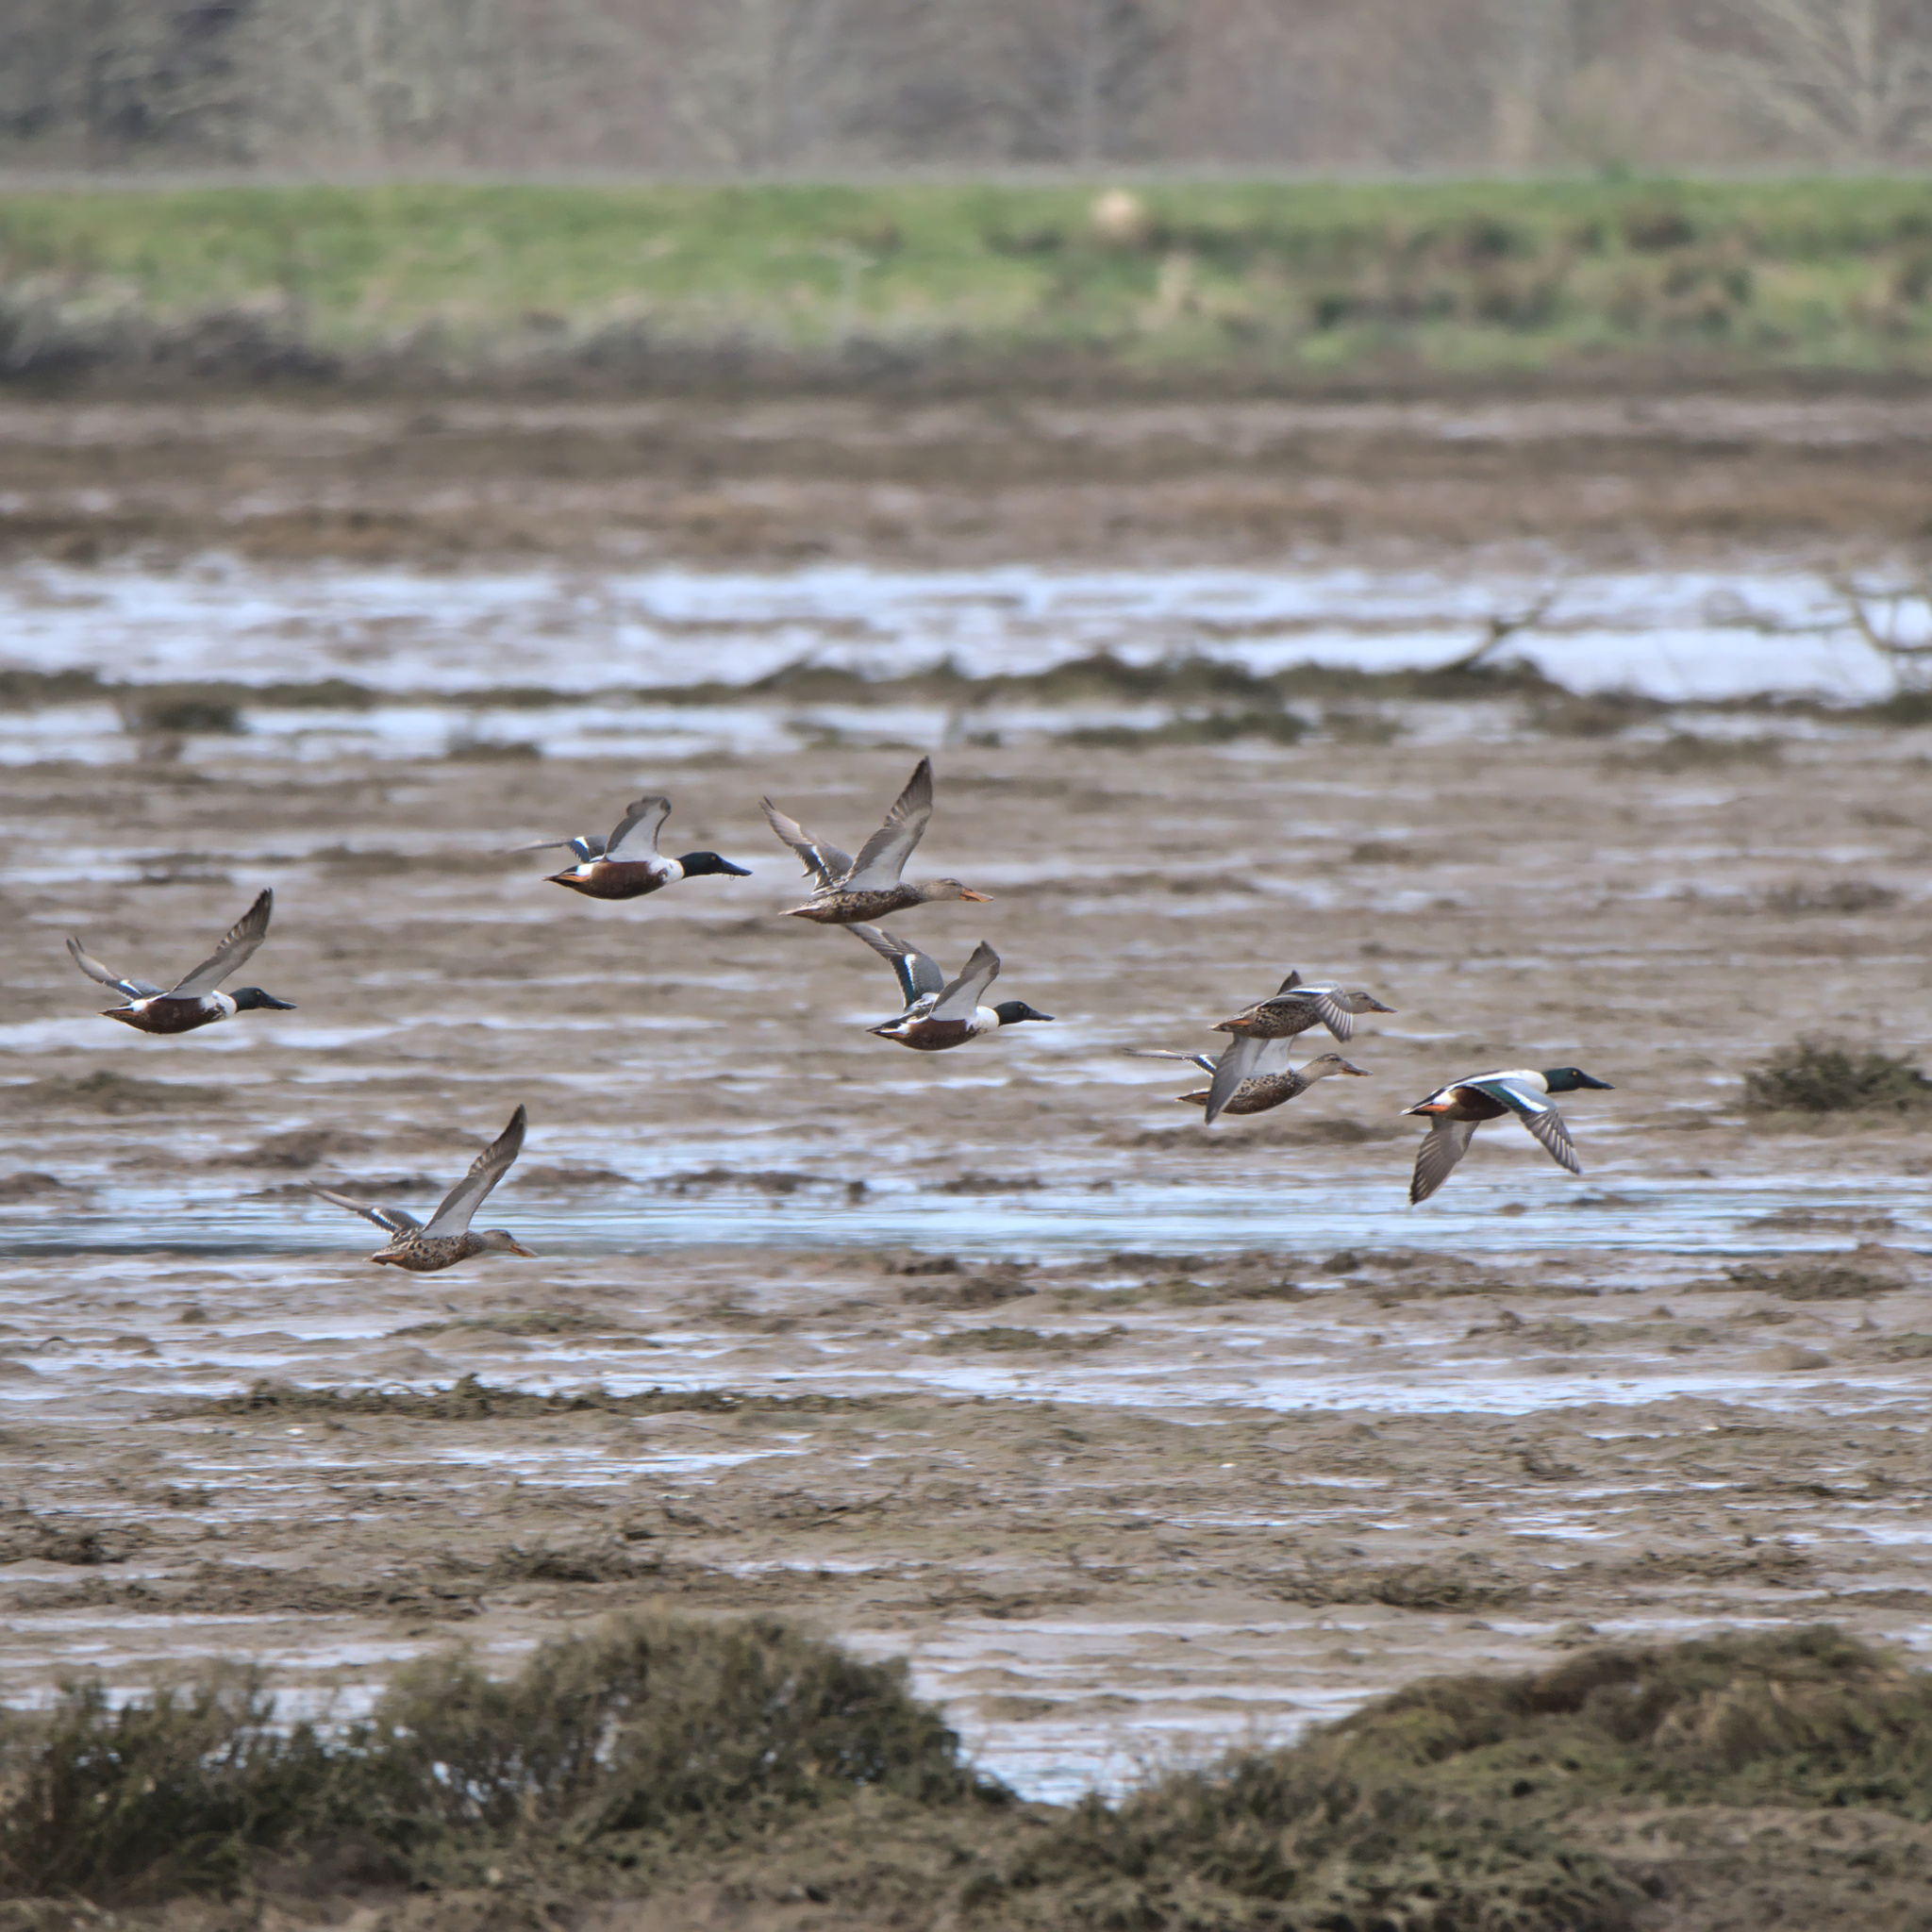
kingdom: Animalia
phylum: Chordata
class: Aves
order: Anseriformes
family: Anatidae
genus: Spatula
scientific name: Spatula clypeata
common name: Northern shoveler
